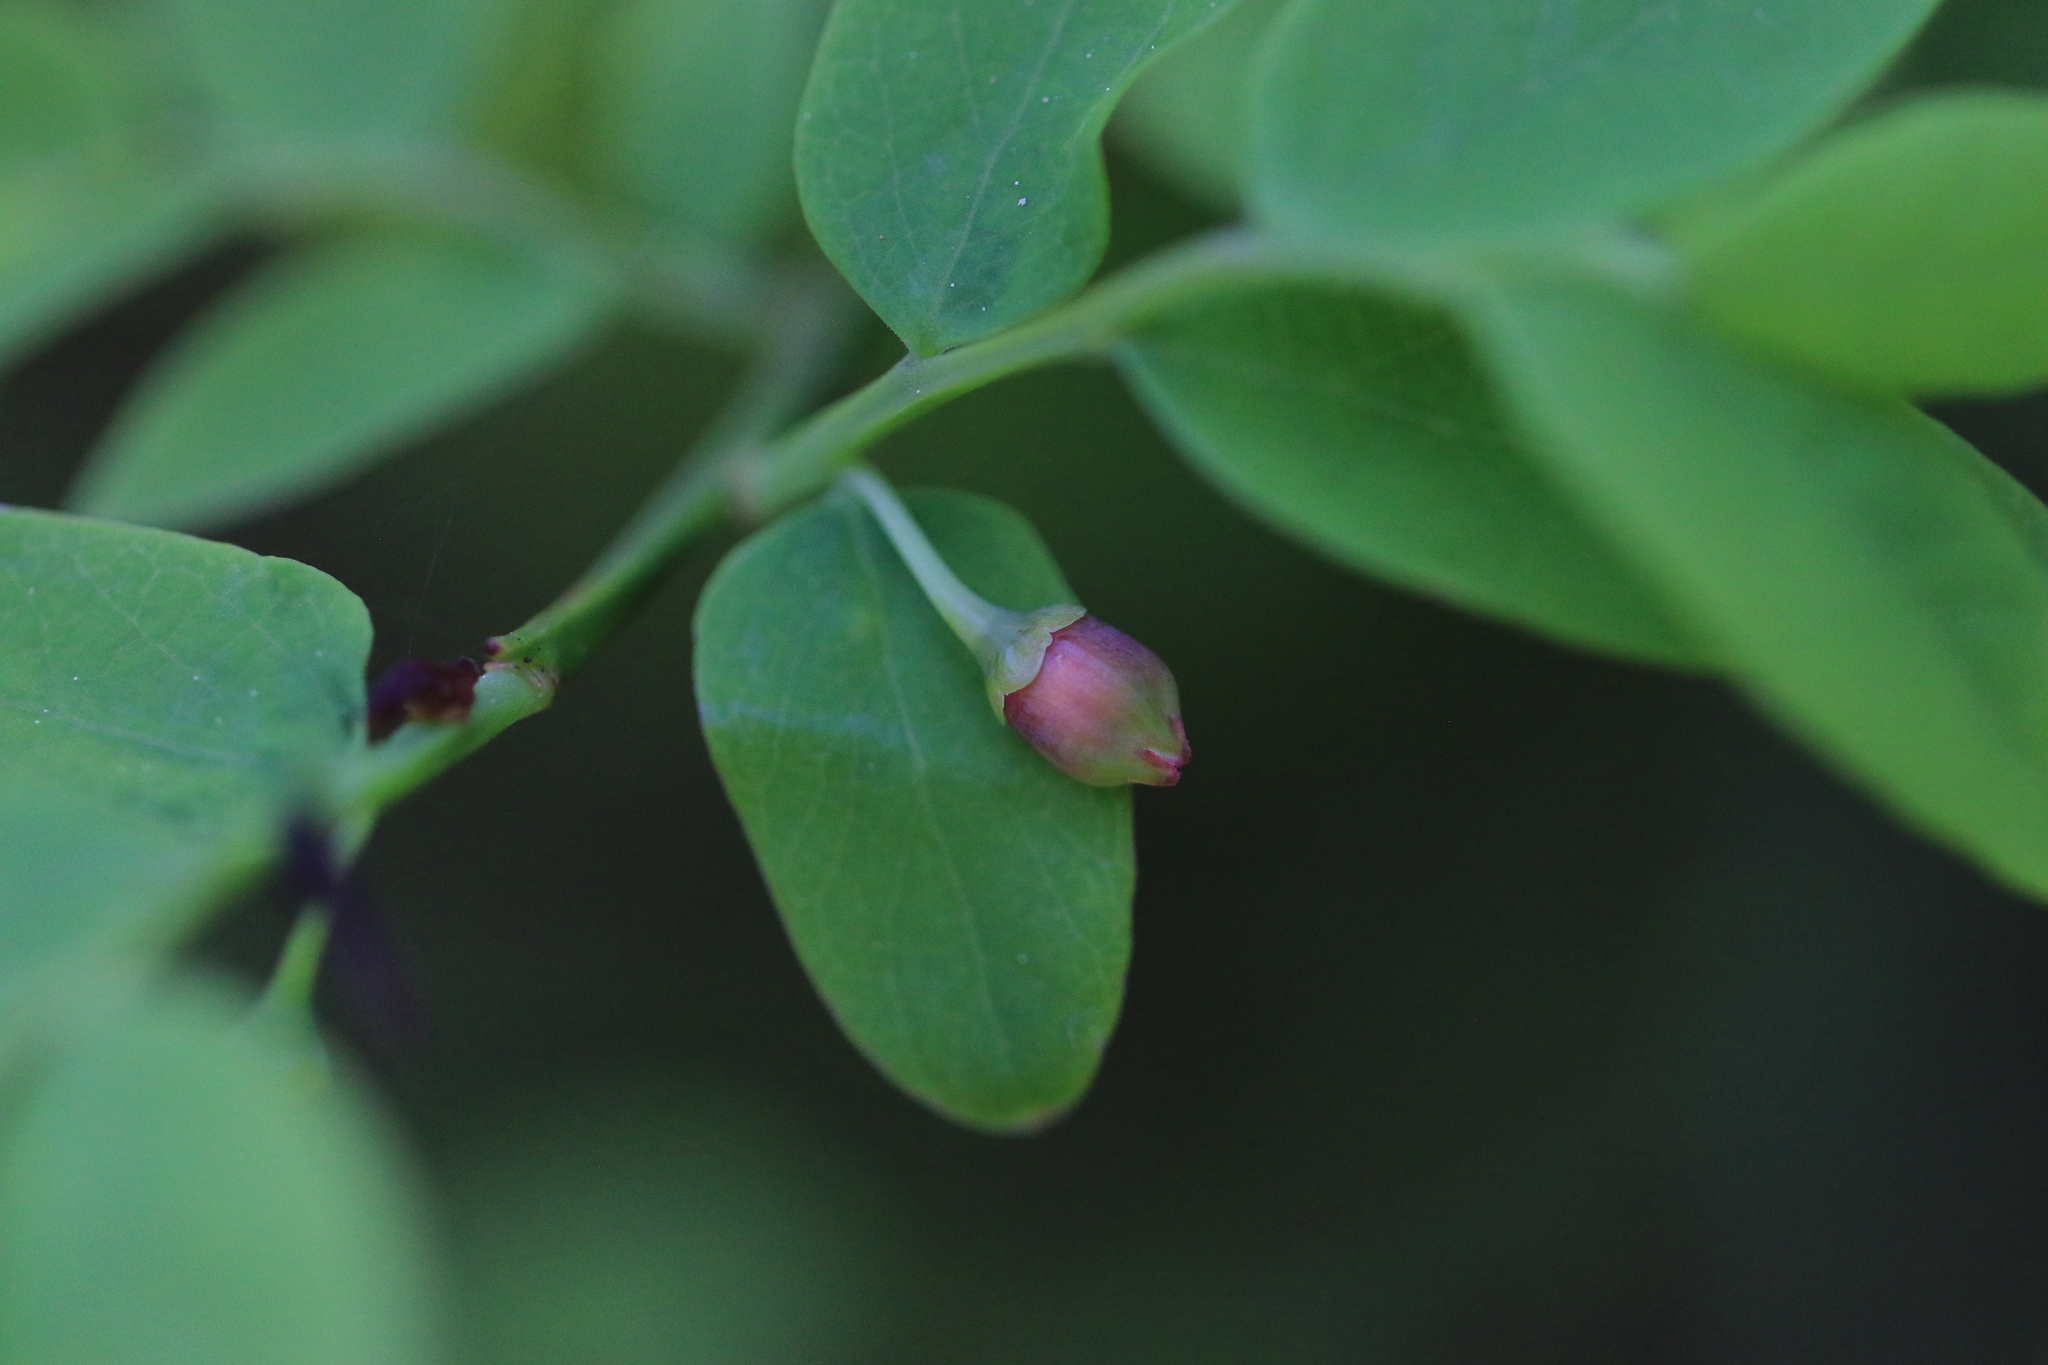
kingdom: Plantae
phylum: Tracheophyta
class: Magnoliopsida
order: Ericales
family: Ericaceae
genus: Vaccinium
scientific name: Vaccinium parvifolium
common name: Red-huckleberry
